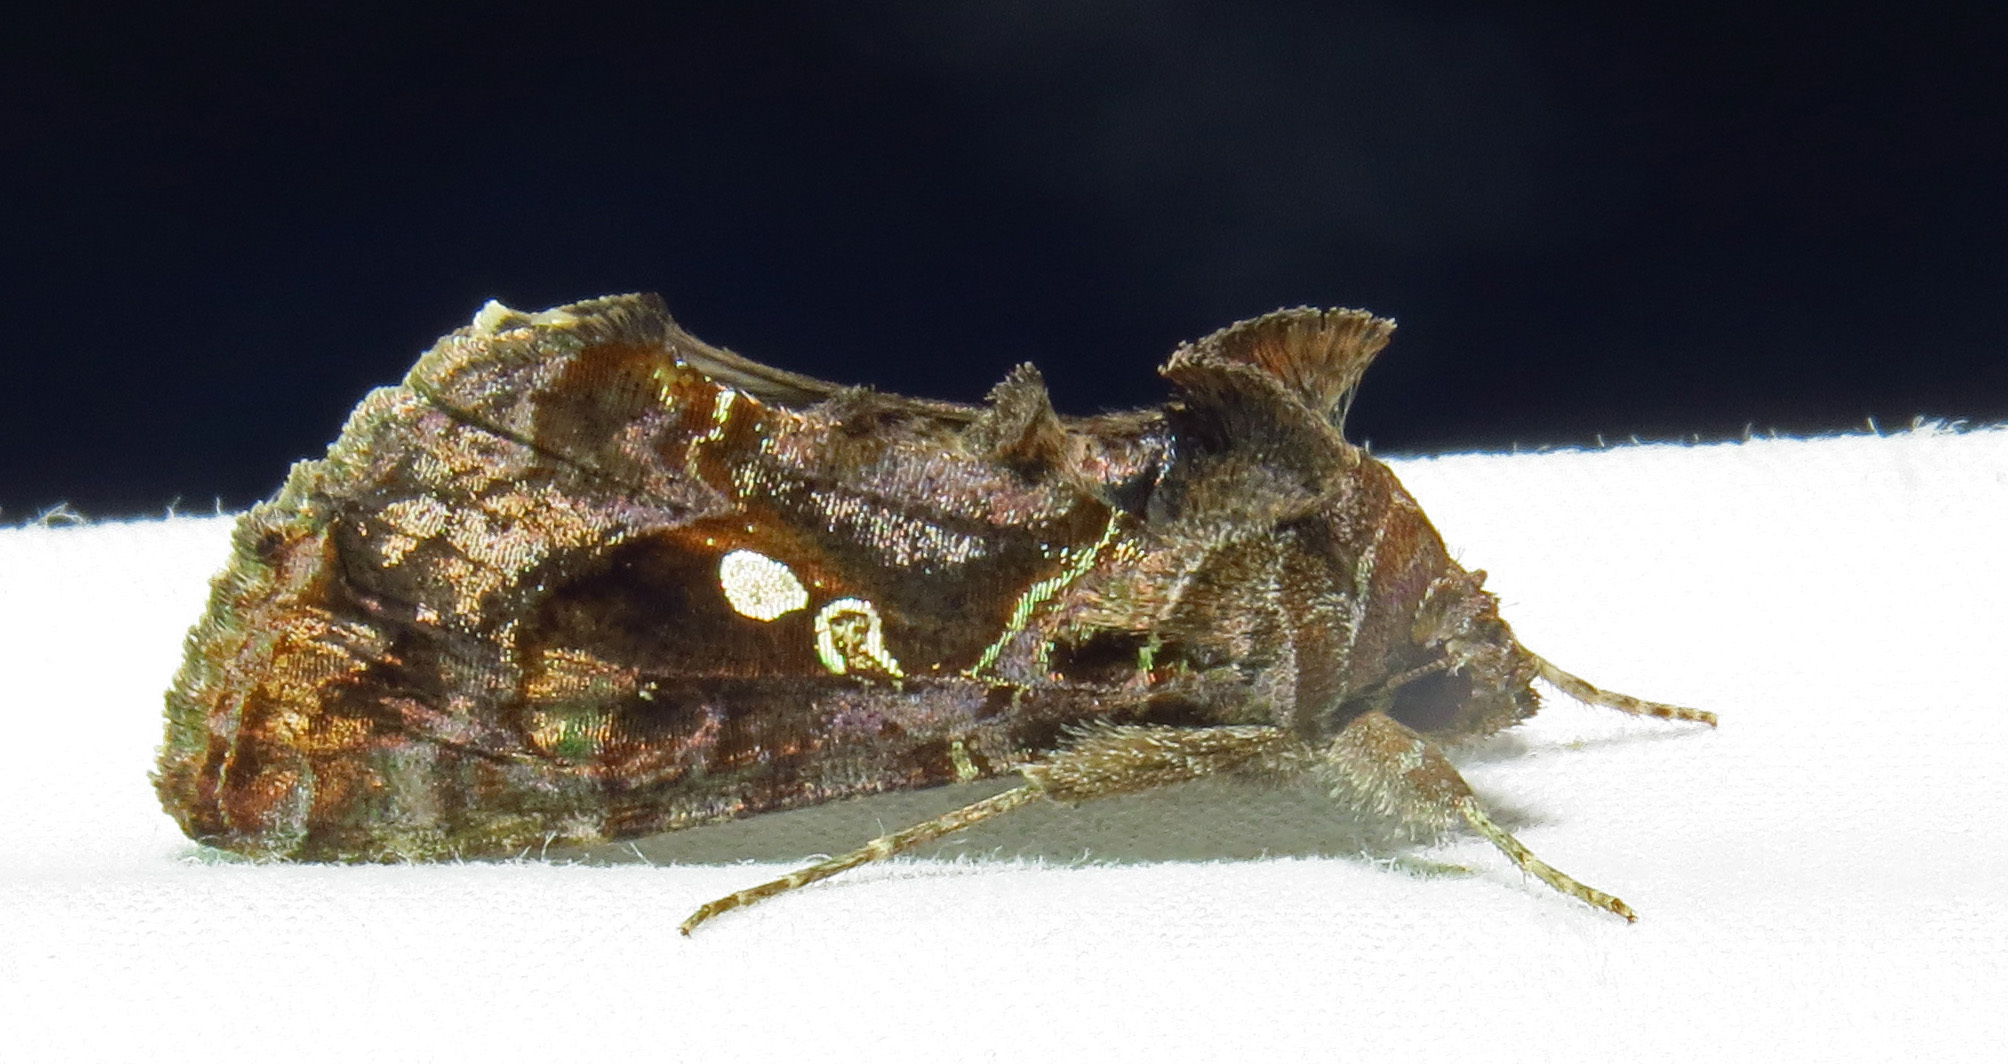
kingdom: Animalia
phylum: Arthropoda
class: Insecta
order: Lepidoptera
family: Noctuidae
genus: Chrysodeixis
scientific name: Chrysodeixis includens
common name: Cutworm moth
